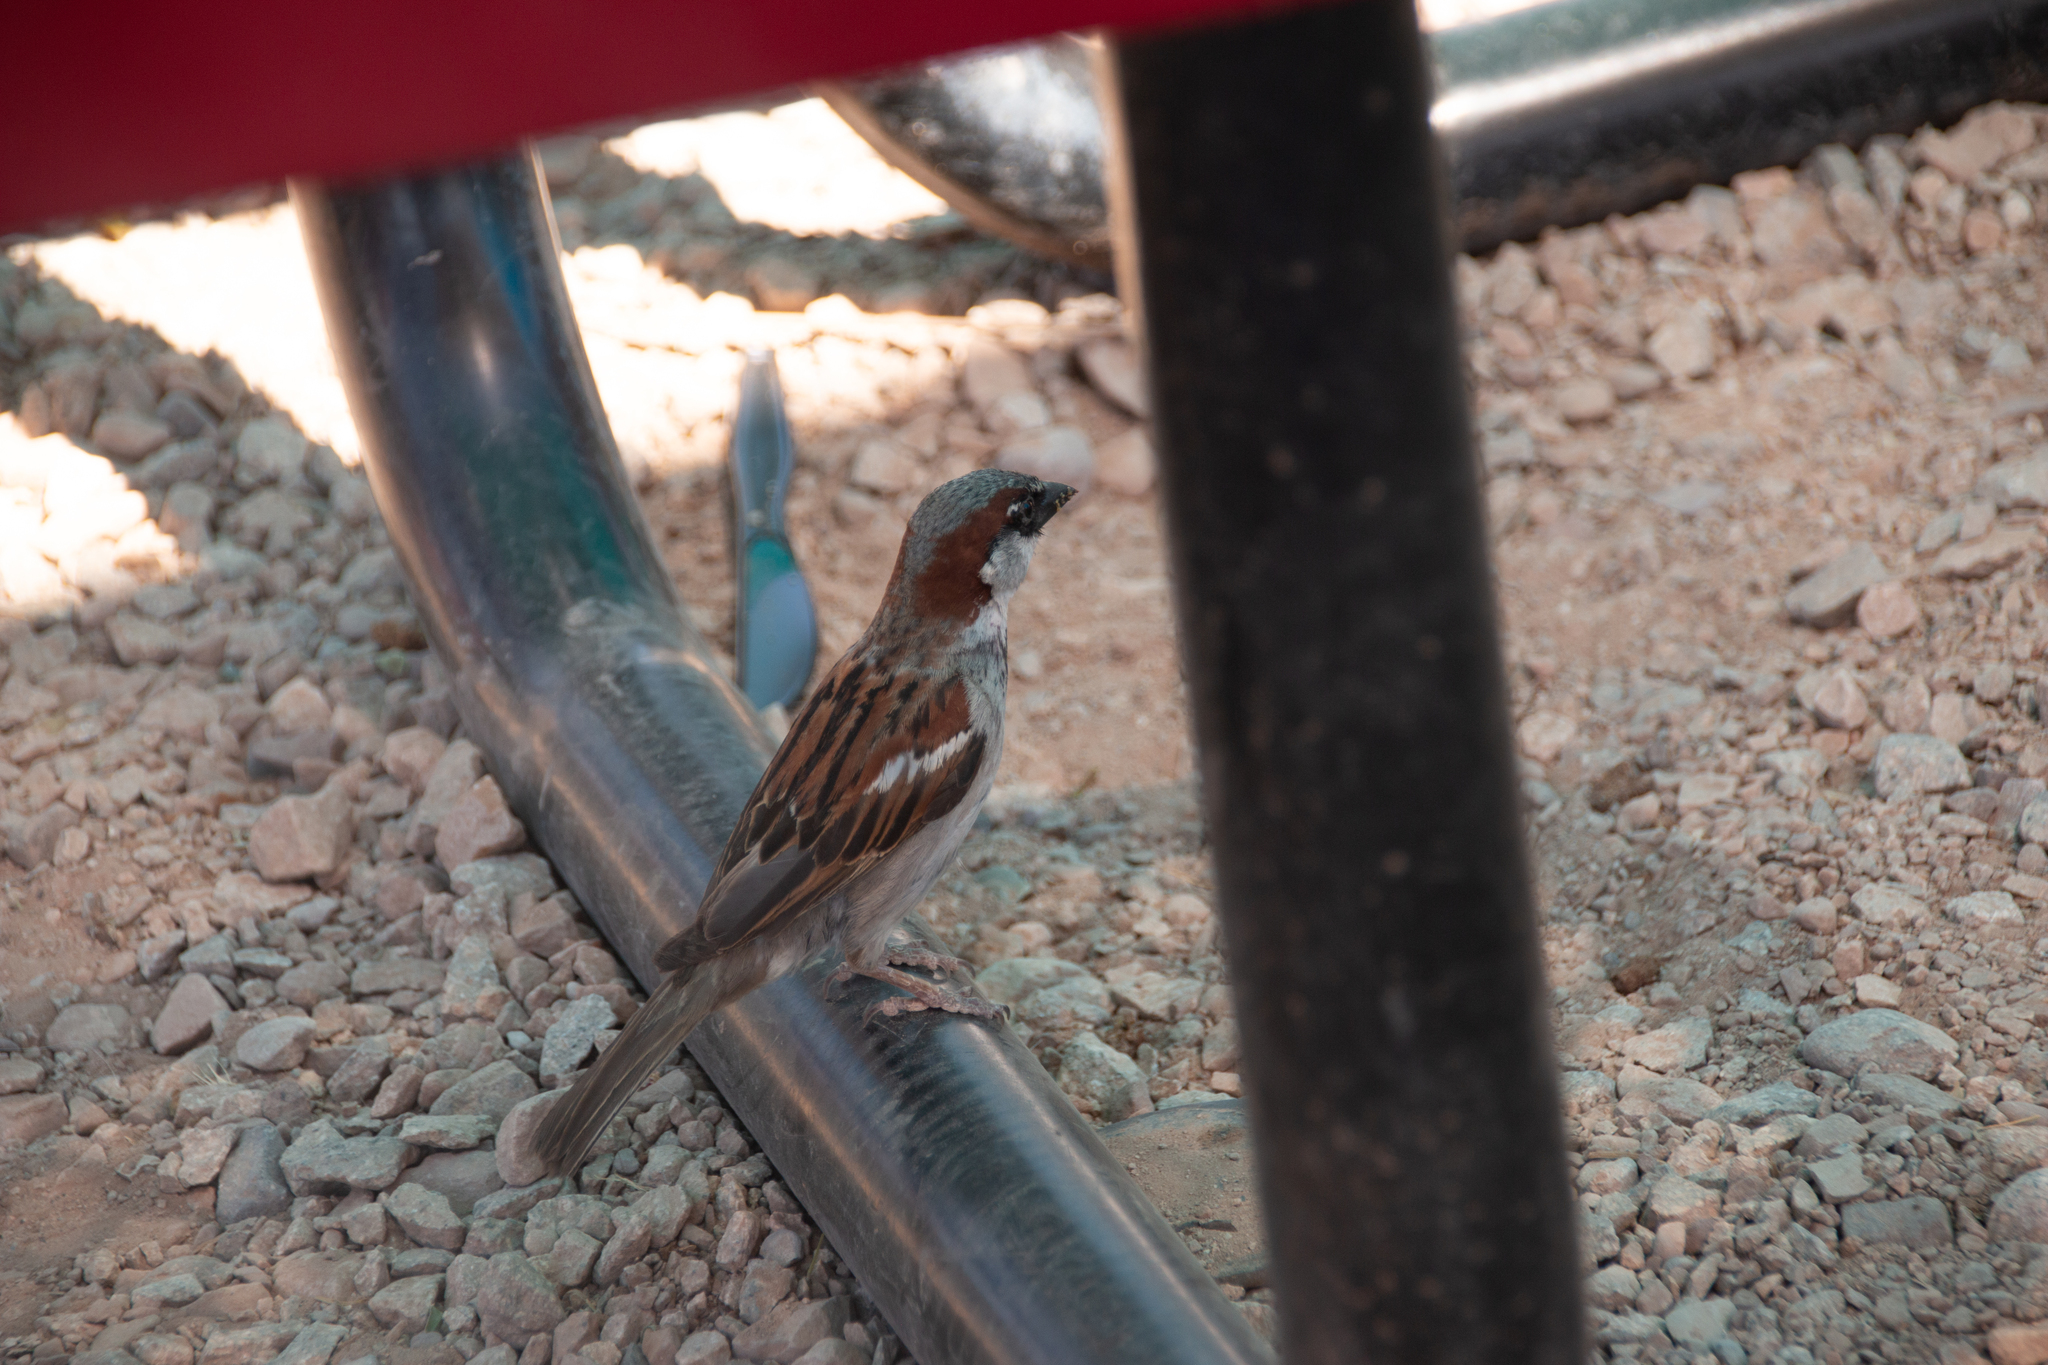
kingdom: Animalia
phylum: Chordata
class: Aves
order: Passeriformes
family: Passeridae
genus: Passer
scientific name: Passer domesticus
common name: House sparrow
